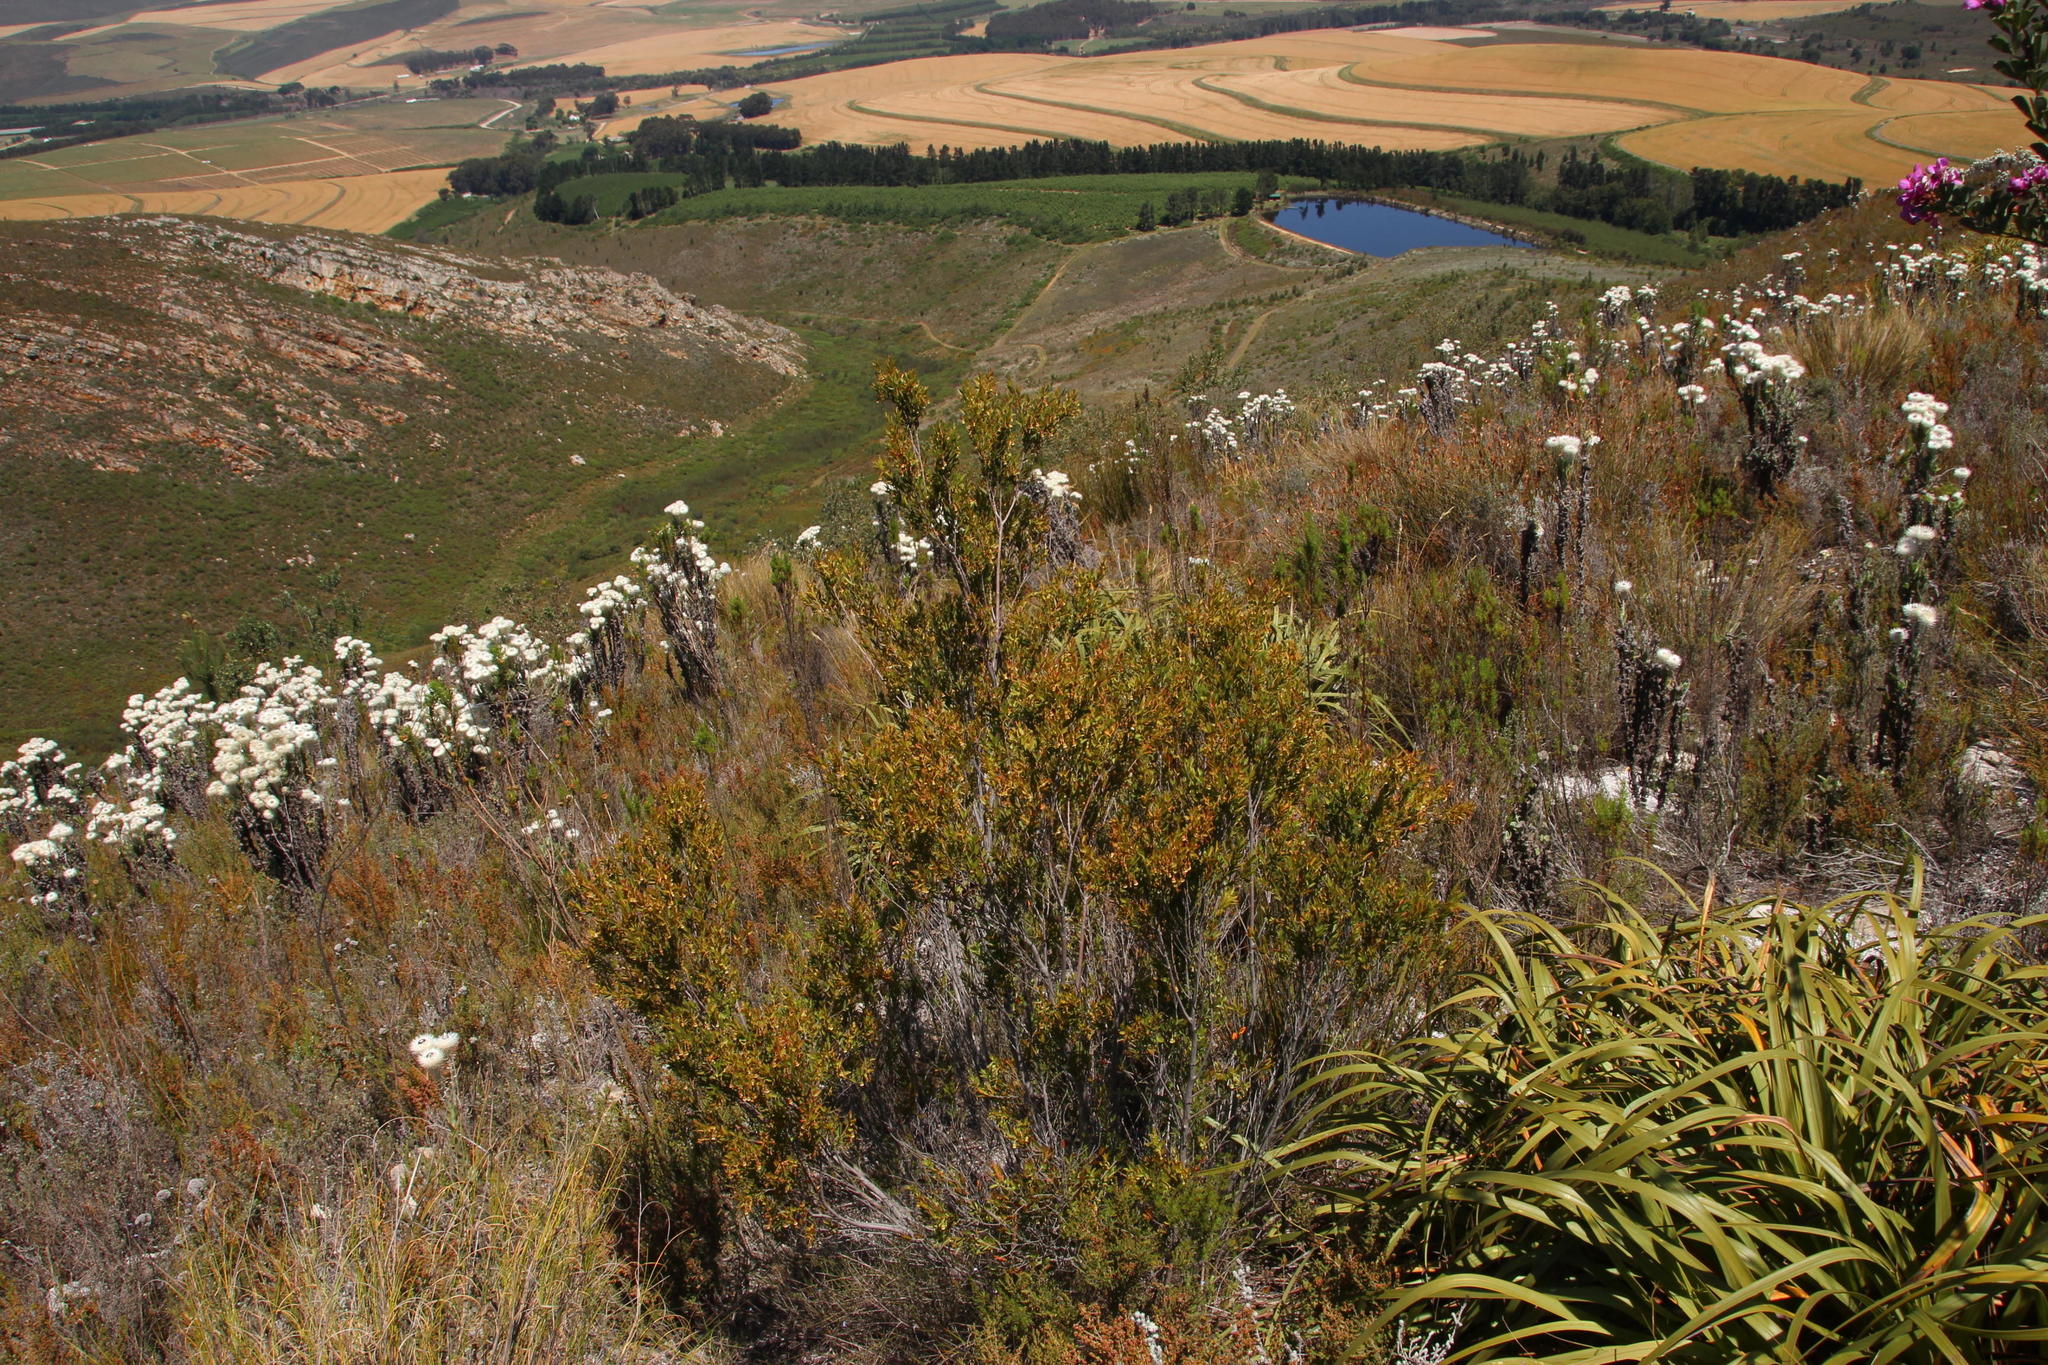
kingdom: Plantae
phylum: Tracheophyta
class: Magnoliopsida
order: Ericales
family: Ebenaceae
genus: Diospyros
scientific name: Diospyros glabra
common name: Fynbos star apple
